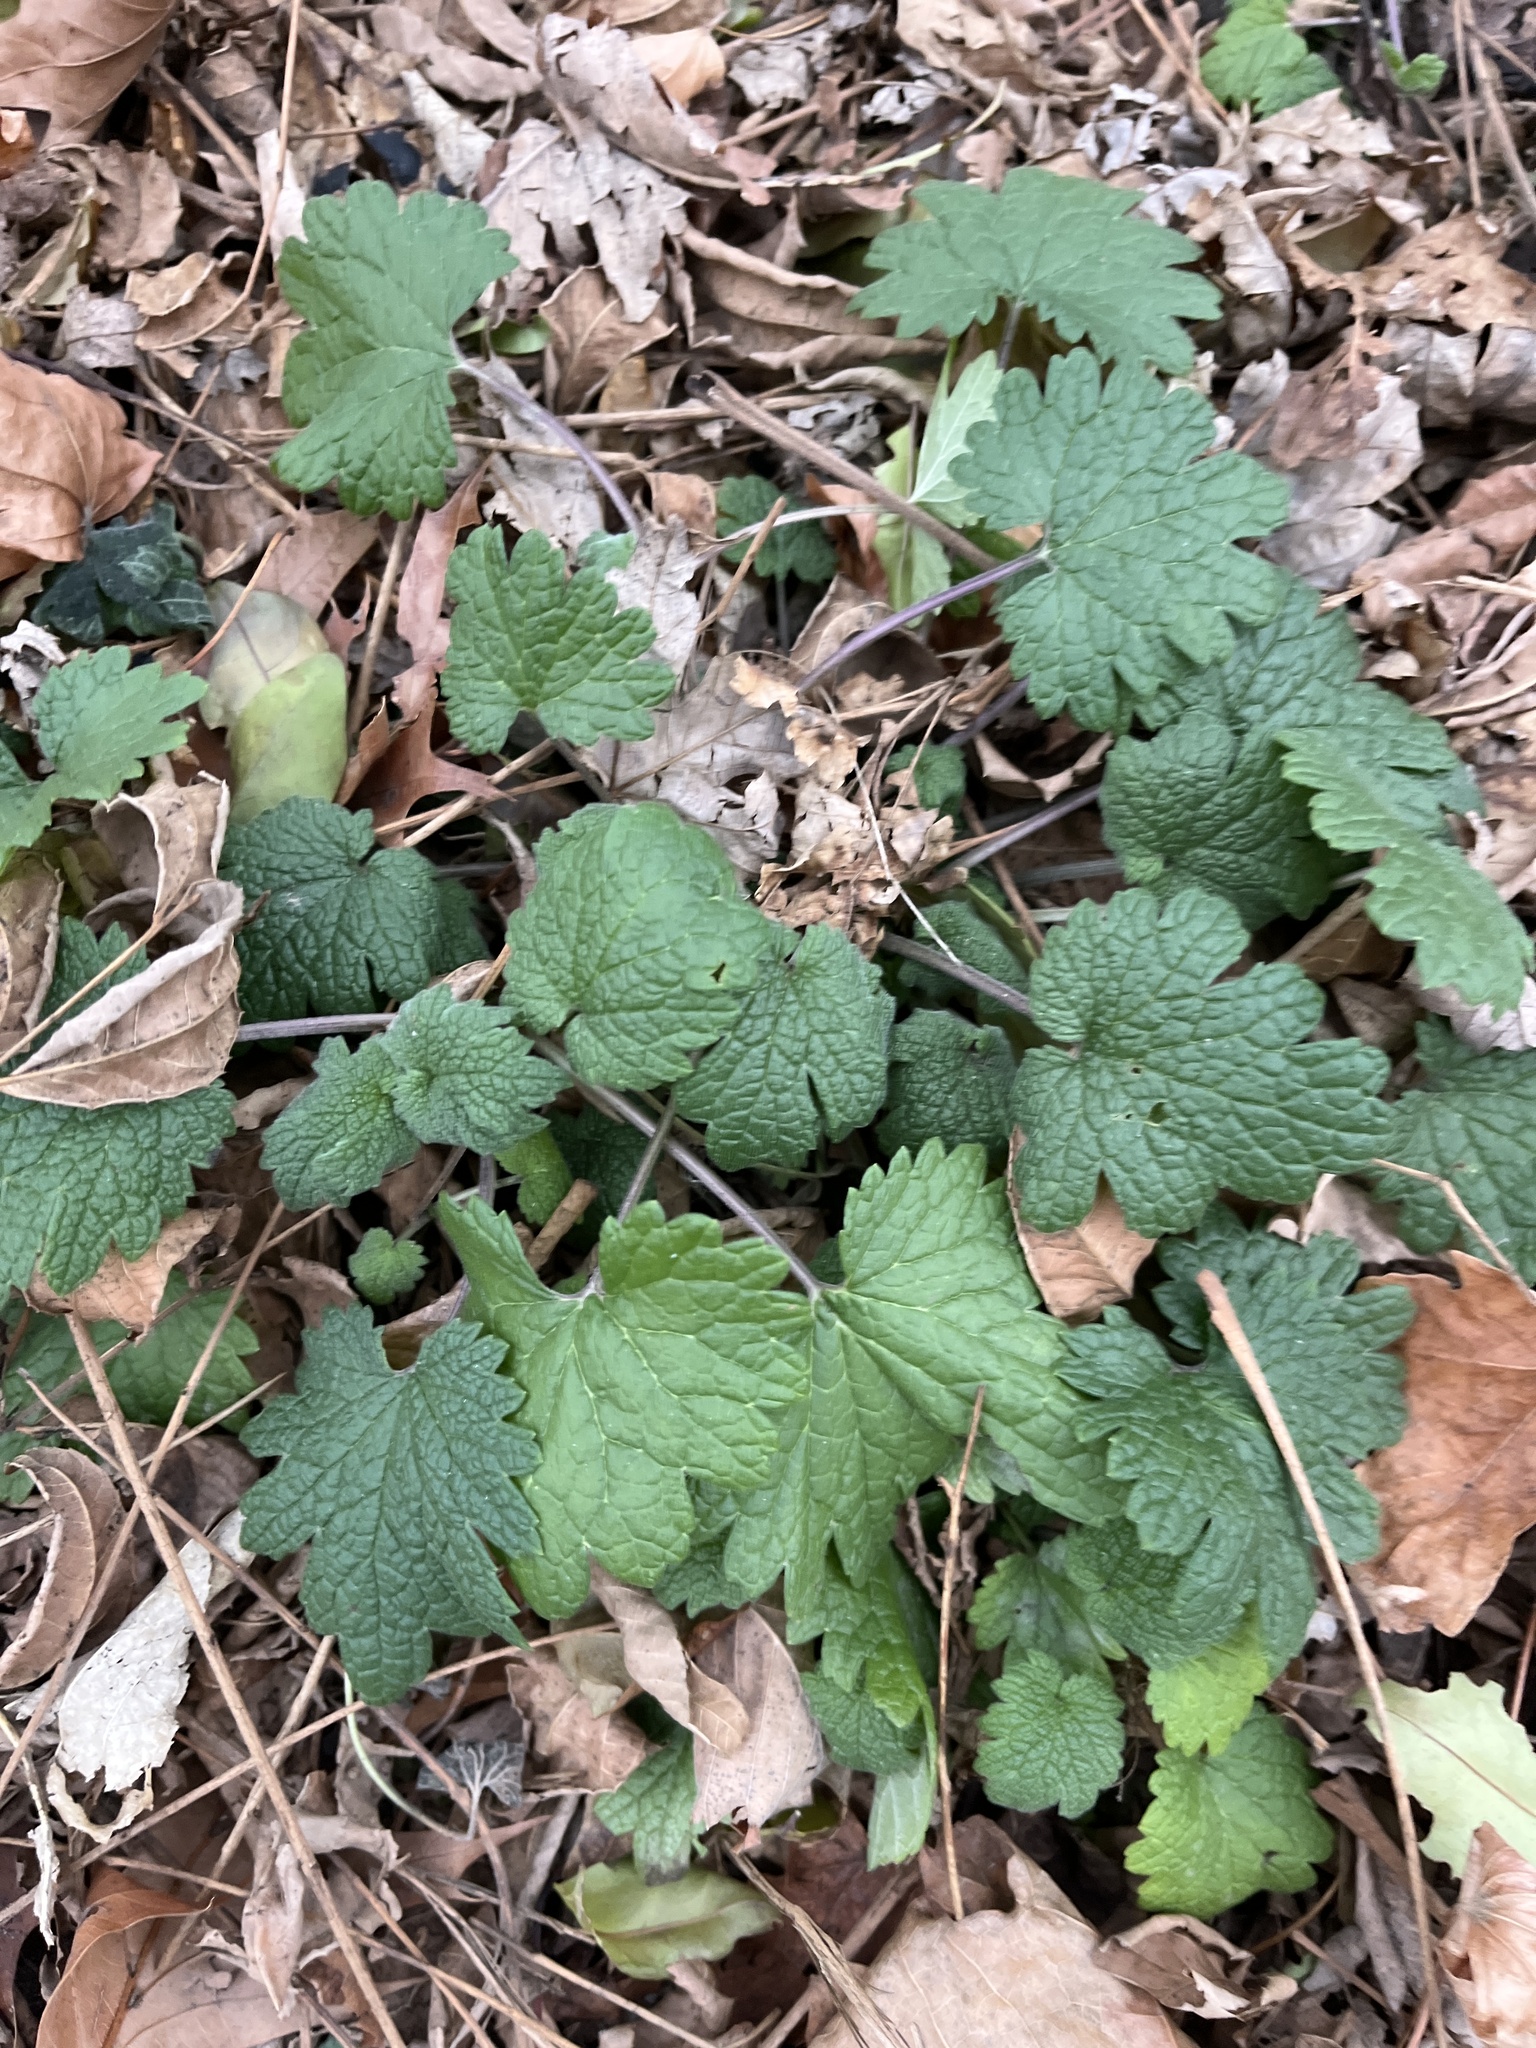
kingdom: Plantae
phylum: Tracheophyta
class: Magnoliopsida
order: Lamiales
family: Lamiaceae
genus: Leonurus
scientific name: Leonurus cardiaca
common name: Motherwort
